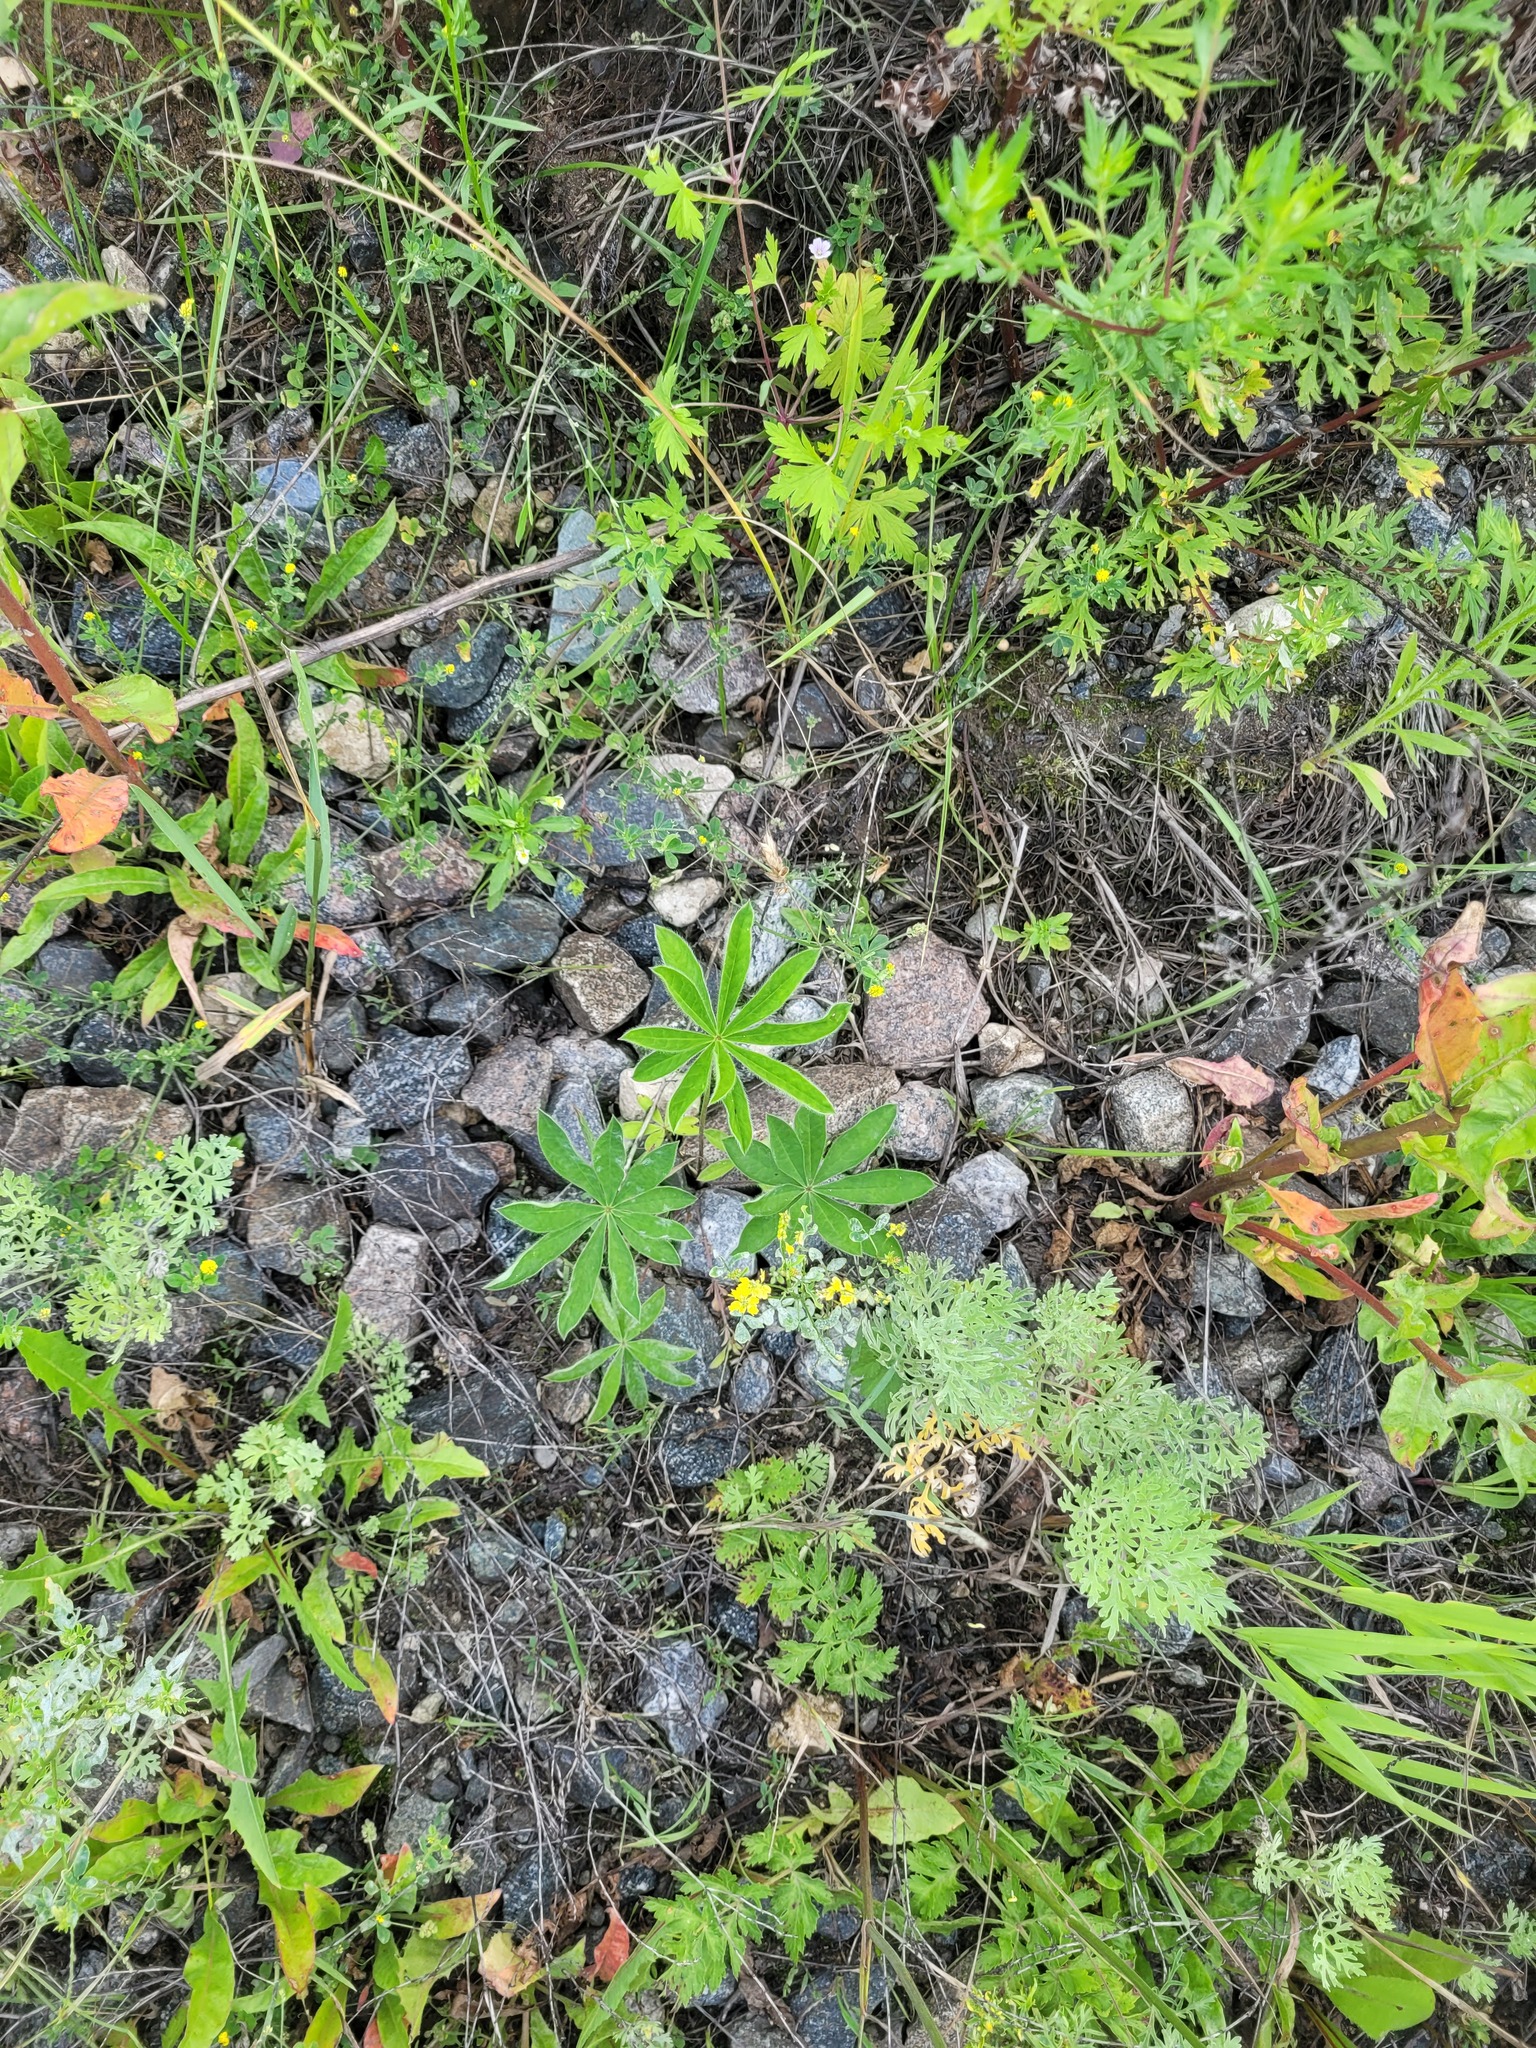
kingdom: Plantae
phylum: Tracheophyta
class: Magnoliopsida
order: Fabales
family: Fabaceae
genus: Lupinus
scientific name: Lupinus polyphyllus
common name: Garden lupin
